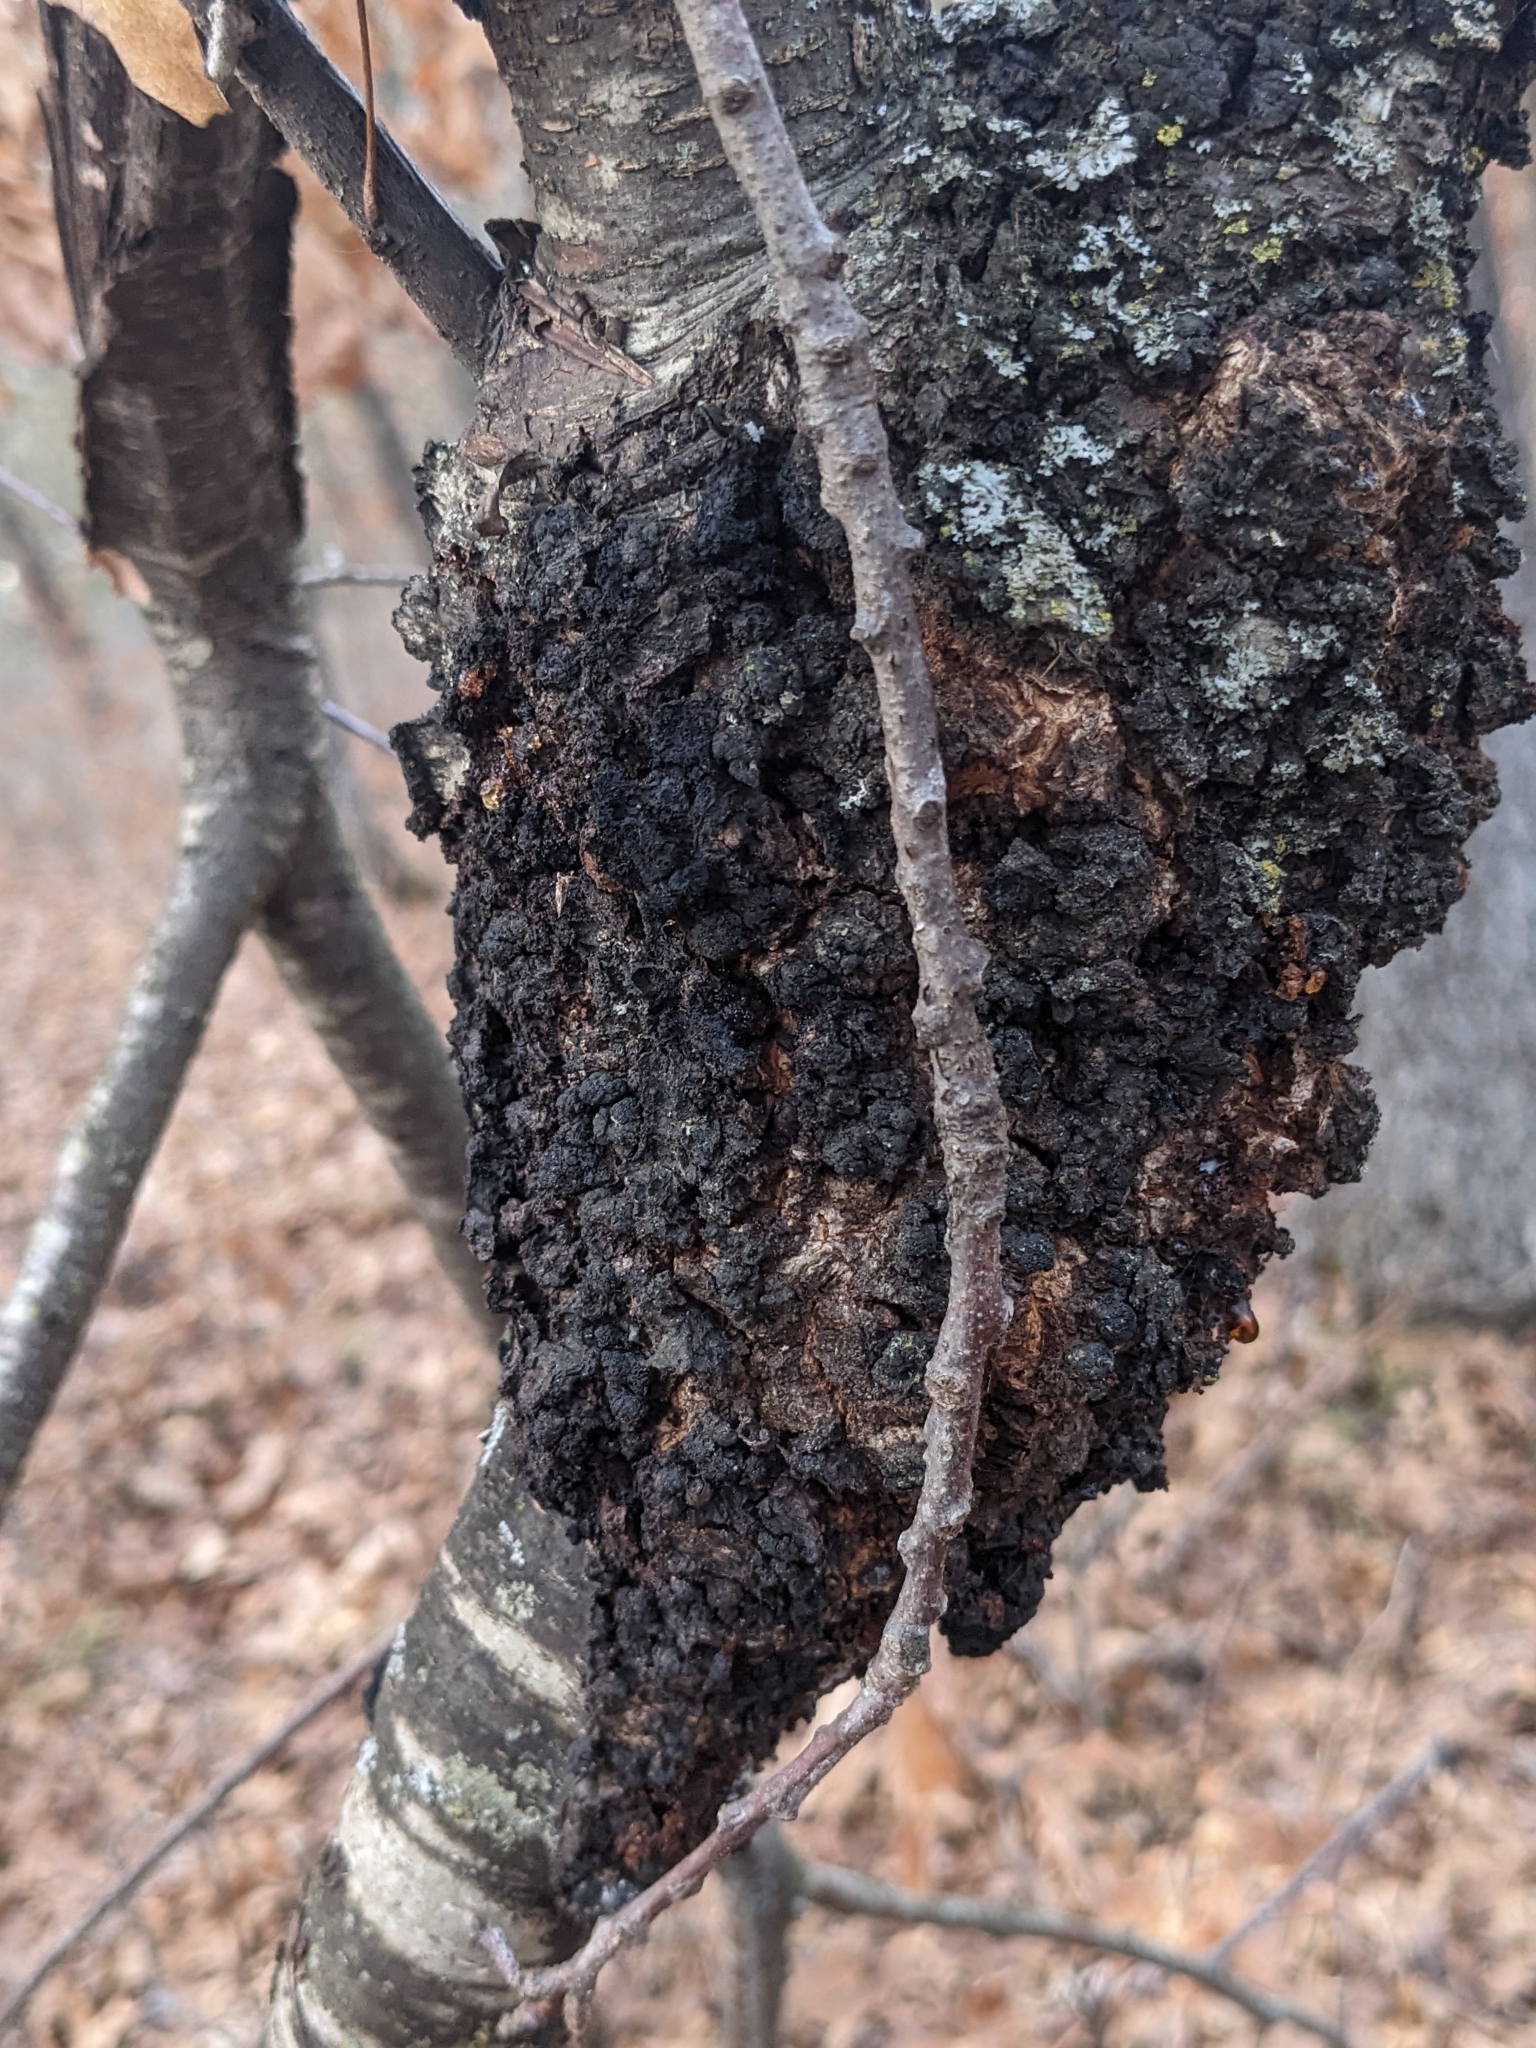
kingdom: Fungi
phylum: Ascomycota
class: Dothideomycetes
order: Venturiales
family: Venturiaceae
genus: Apiosporina
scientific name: Apiosporina morbosa
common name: Black knot
